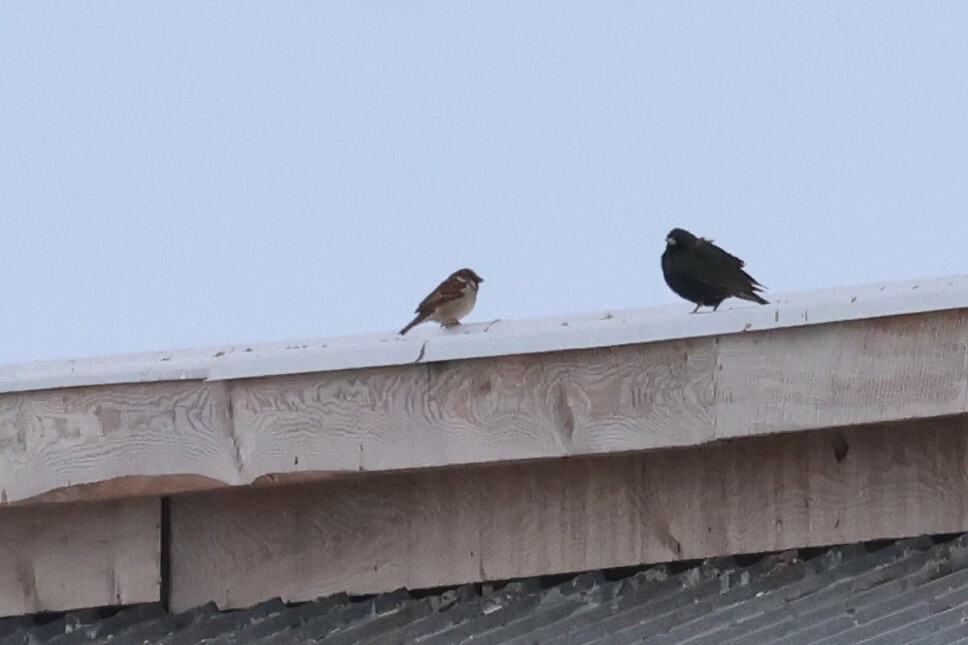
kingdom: Animalia
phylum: Chordata
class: Aves
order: Passeriformes
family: Passeridae
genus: Passer
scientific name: Passer domesticus
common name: House sparrow
